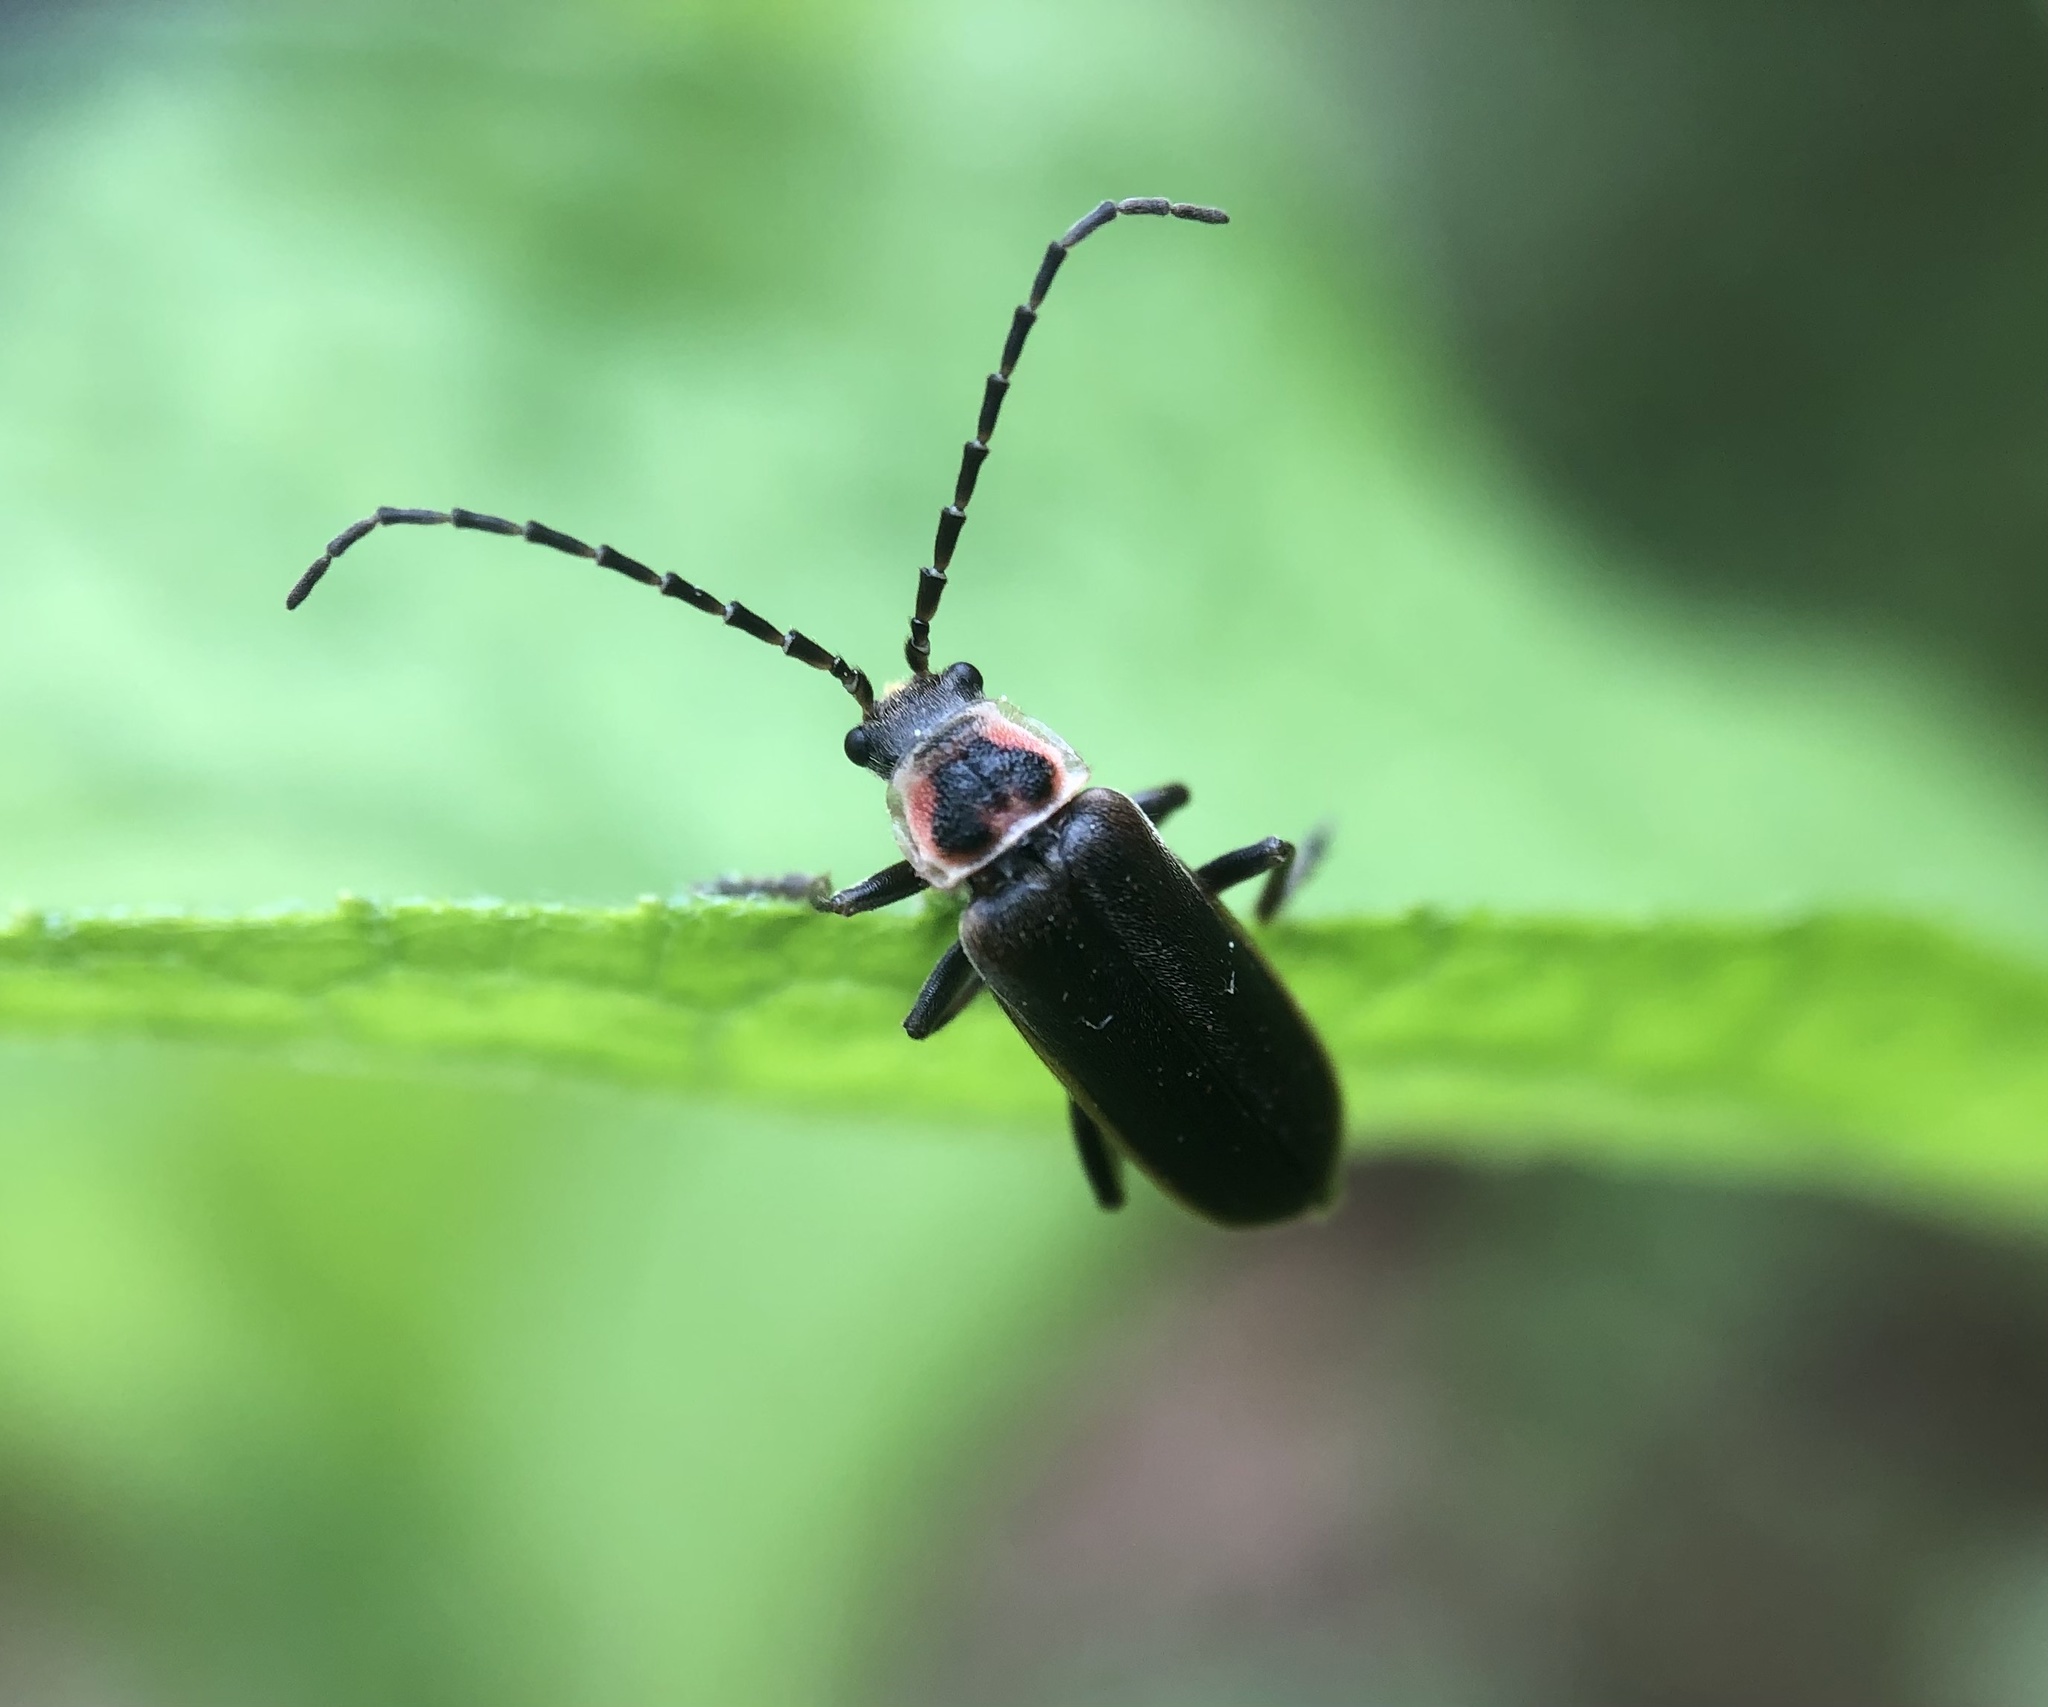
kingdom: Animalia
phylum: Arthropoda
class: Insecta
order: Coleoptera
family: Cantharidae
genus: Atalantycha
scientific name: Atalantycha dentigera
